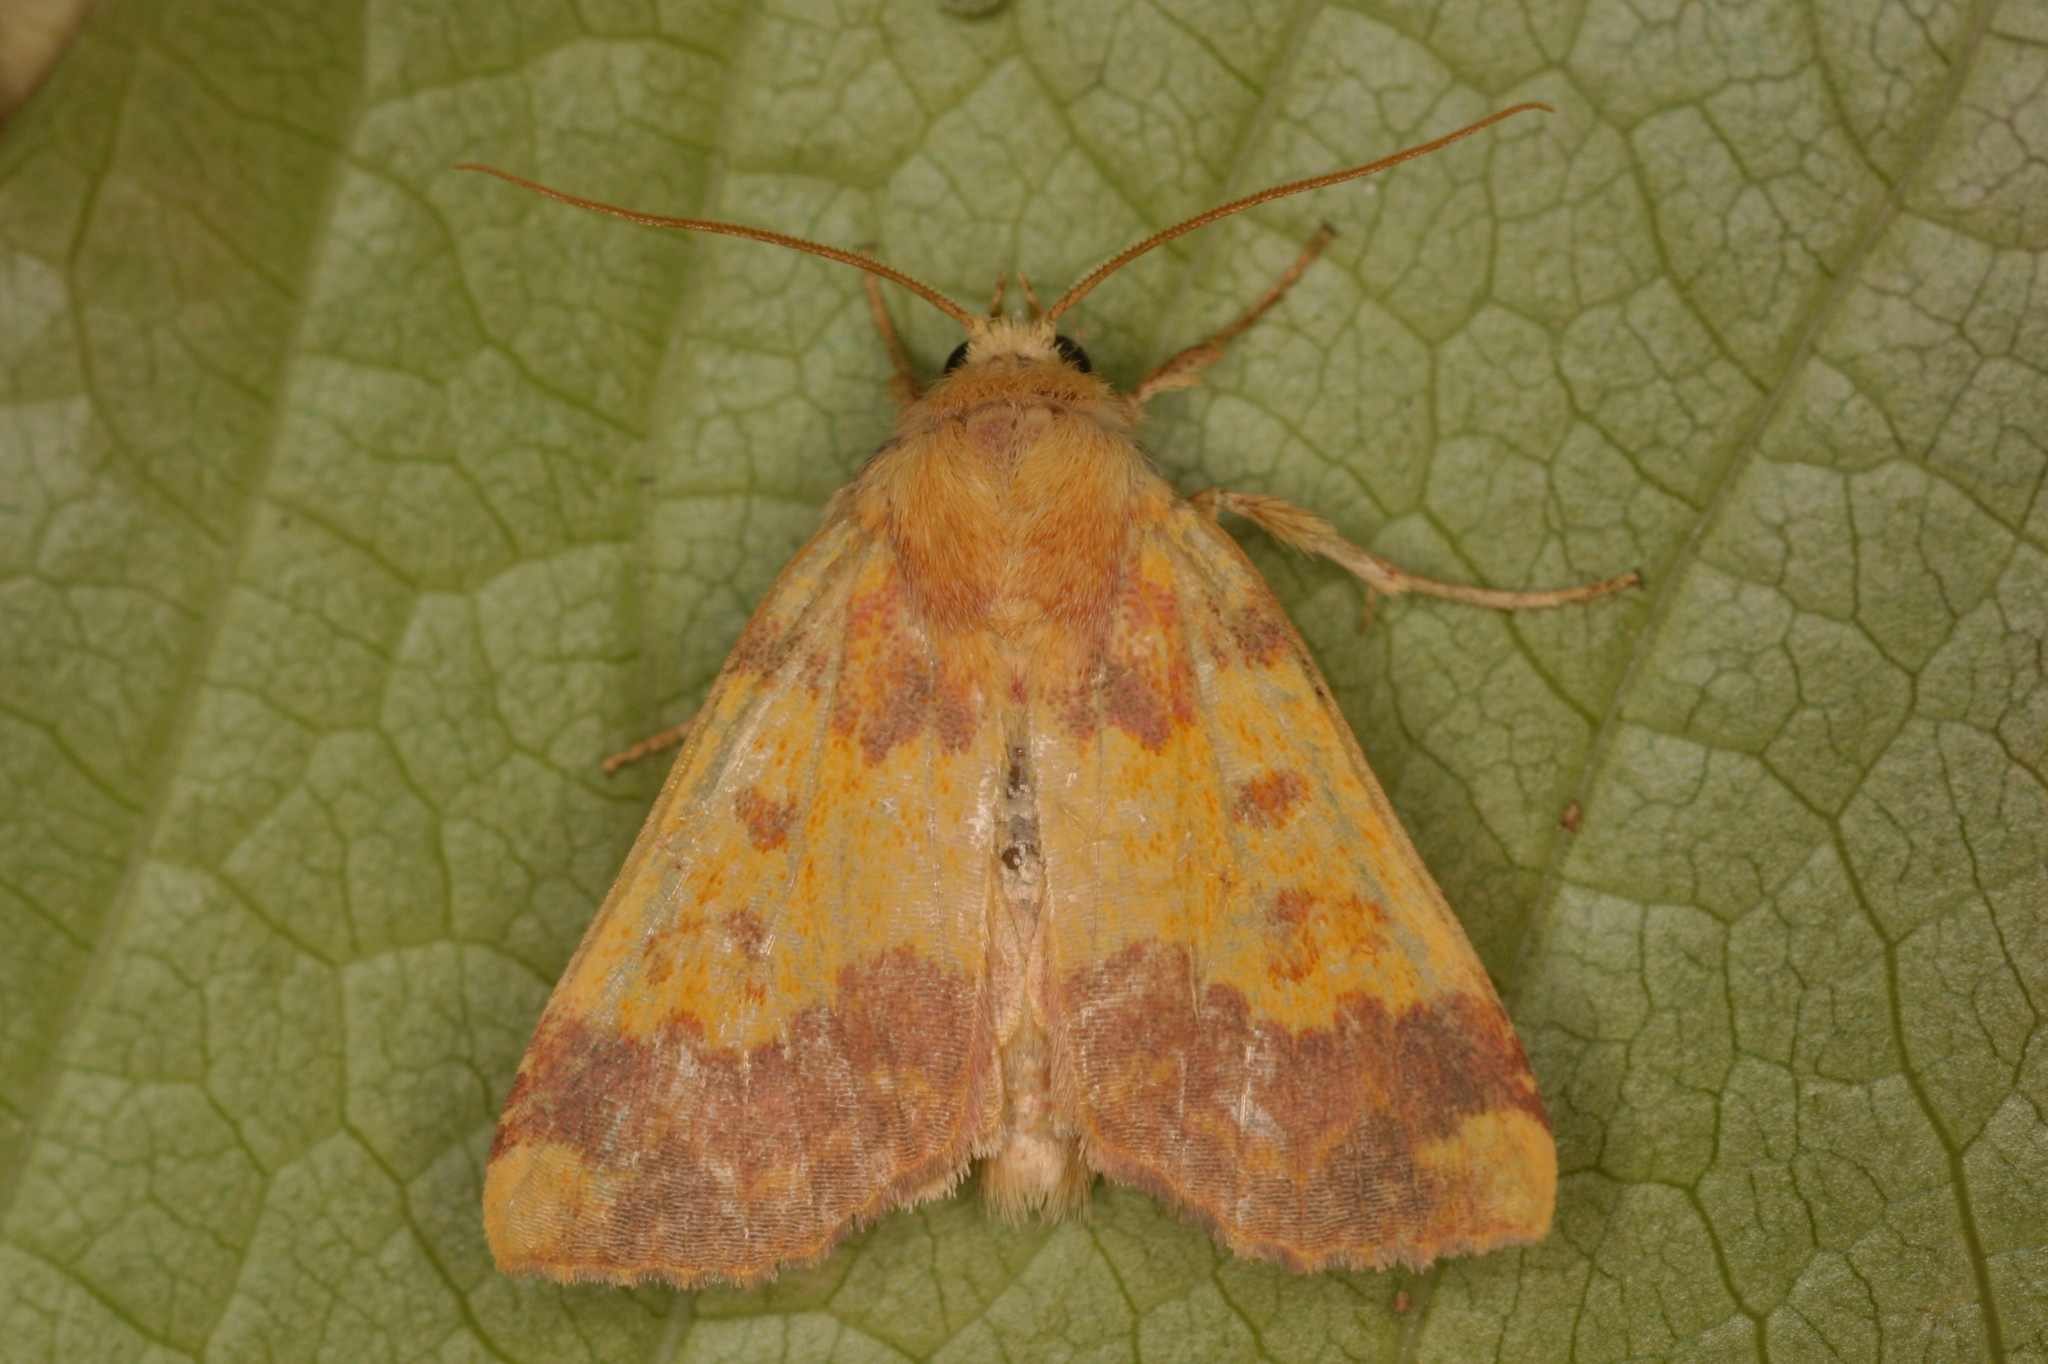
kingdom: Animalia
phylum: Arthropoda
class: Insecta
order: Lepidoptera
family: Noctuidae
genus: Tiliacea
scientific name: Tiliacea aurago
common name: Barred sallow
